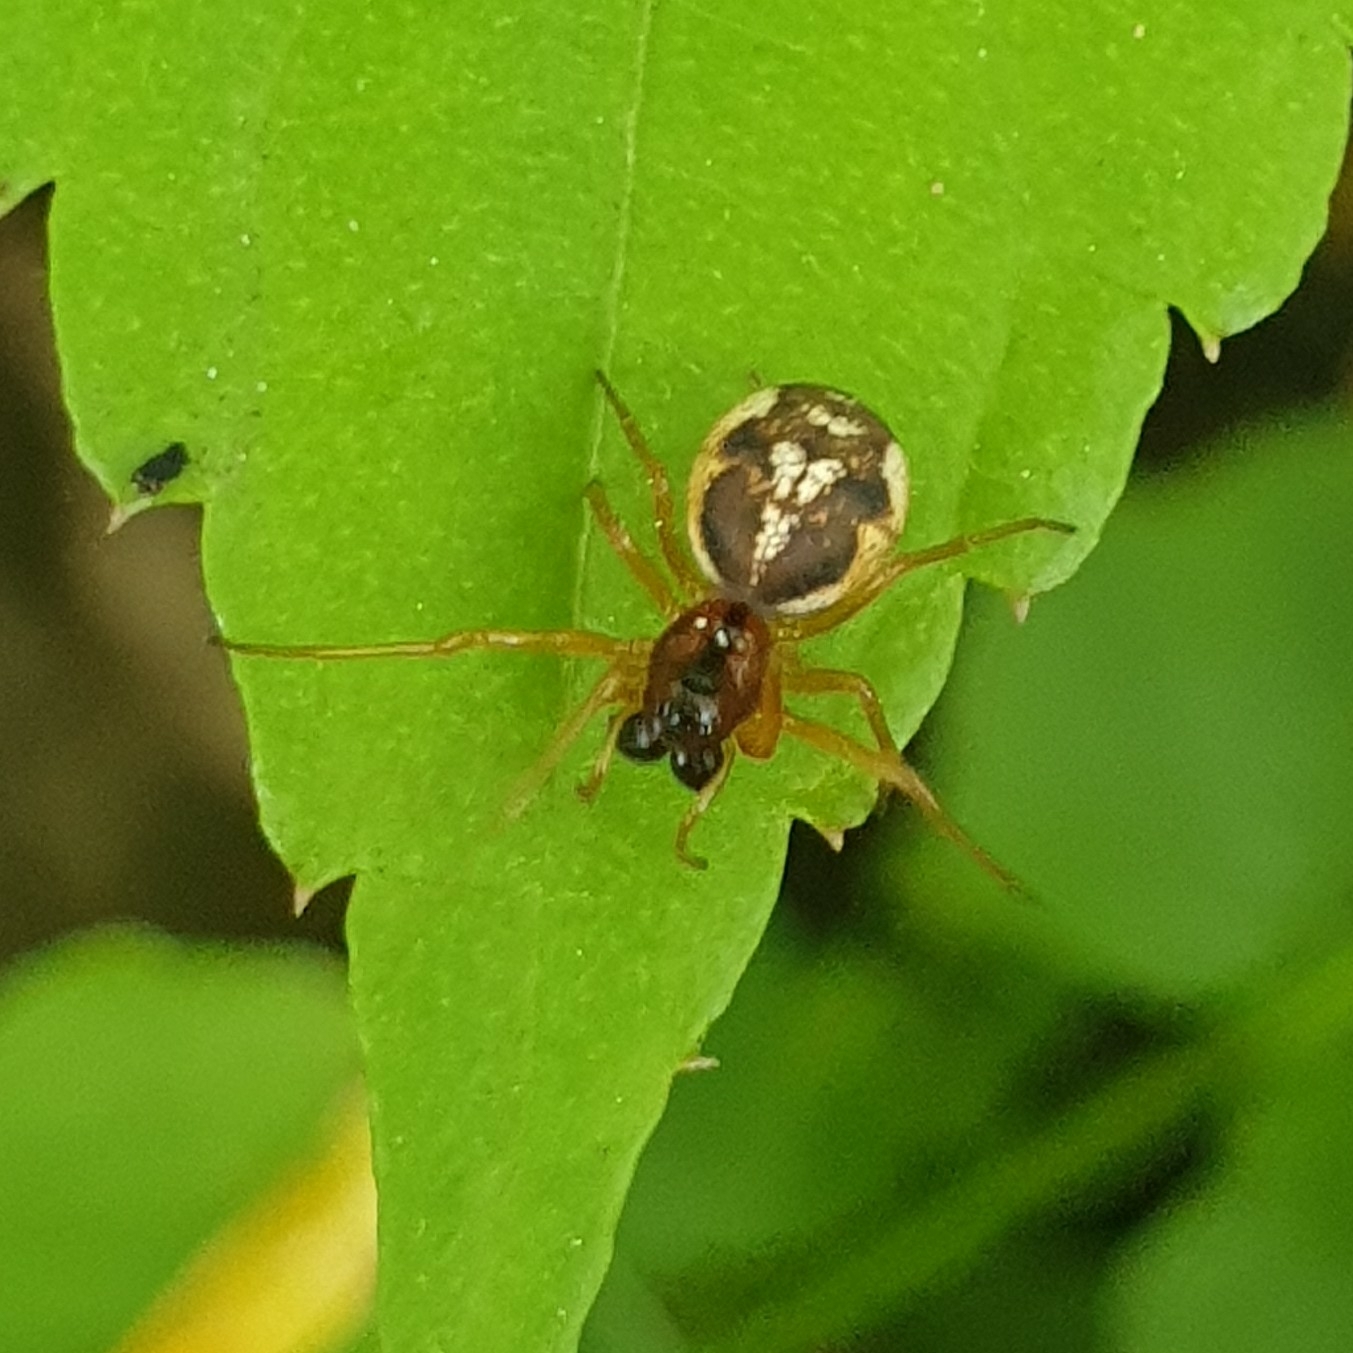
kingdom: Animalia
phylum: Arthropoda
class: Arachnida
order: Araneae
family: Tetragnathidae
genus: Pachygnatha
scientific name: Pachygnatha listeri
